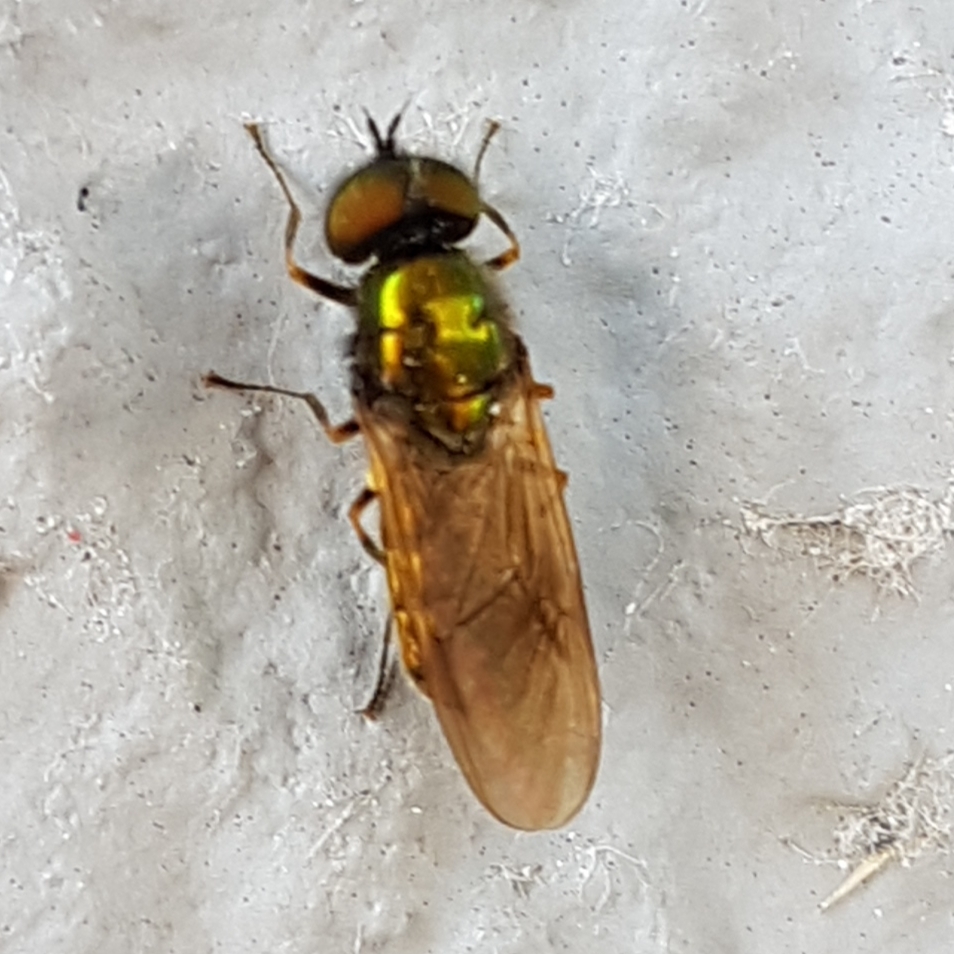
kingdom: Animalia
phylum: Arthropoda
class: Insecta
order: Diptera
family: Stratiomyidae
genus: Chloromyia
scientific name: Chloromyia formosa
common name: Soldier fly
